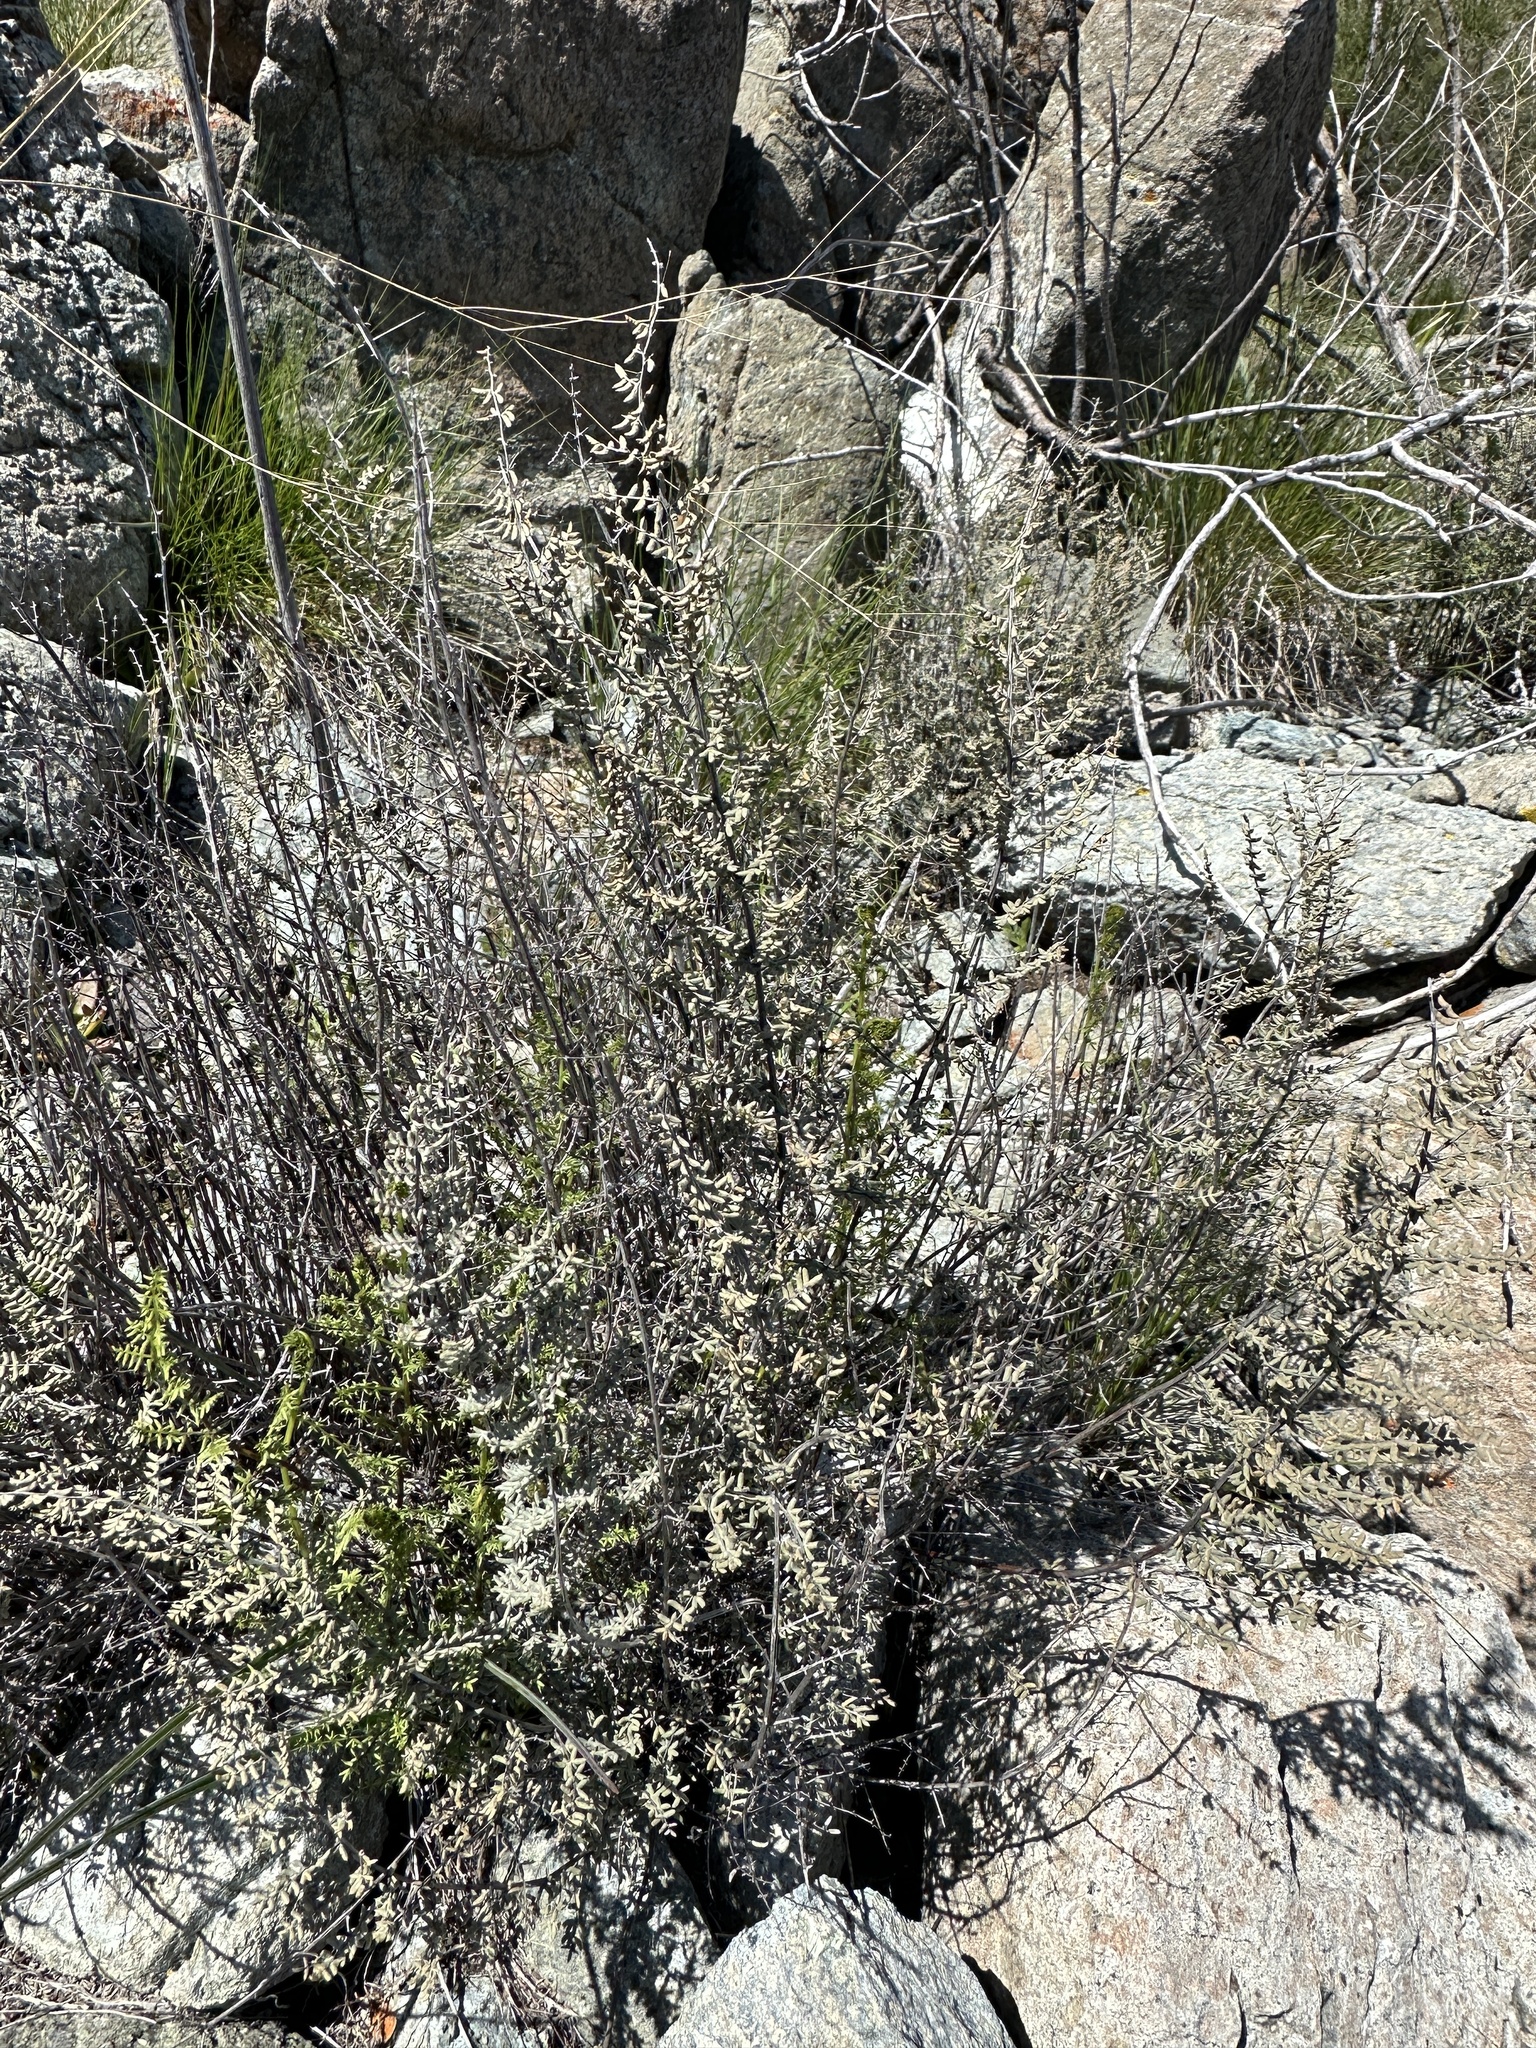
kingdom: Plantae
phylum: Tracheophyta
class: Polypodiopsida
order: Polypodiales
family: Pteridaceae
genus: Pellaea
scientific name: Pellaea mucronata
